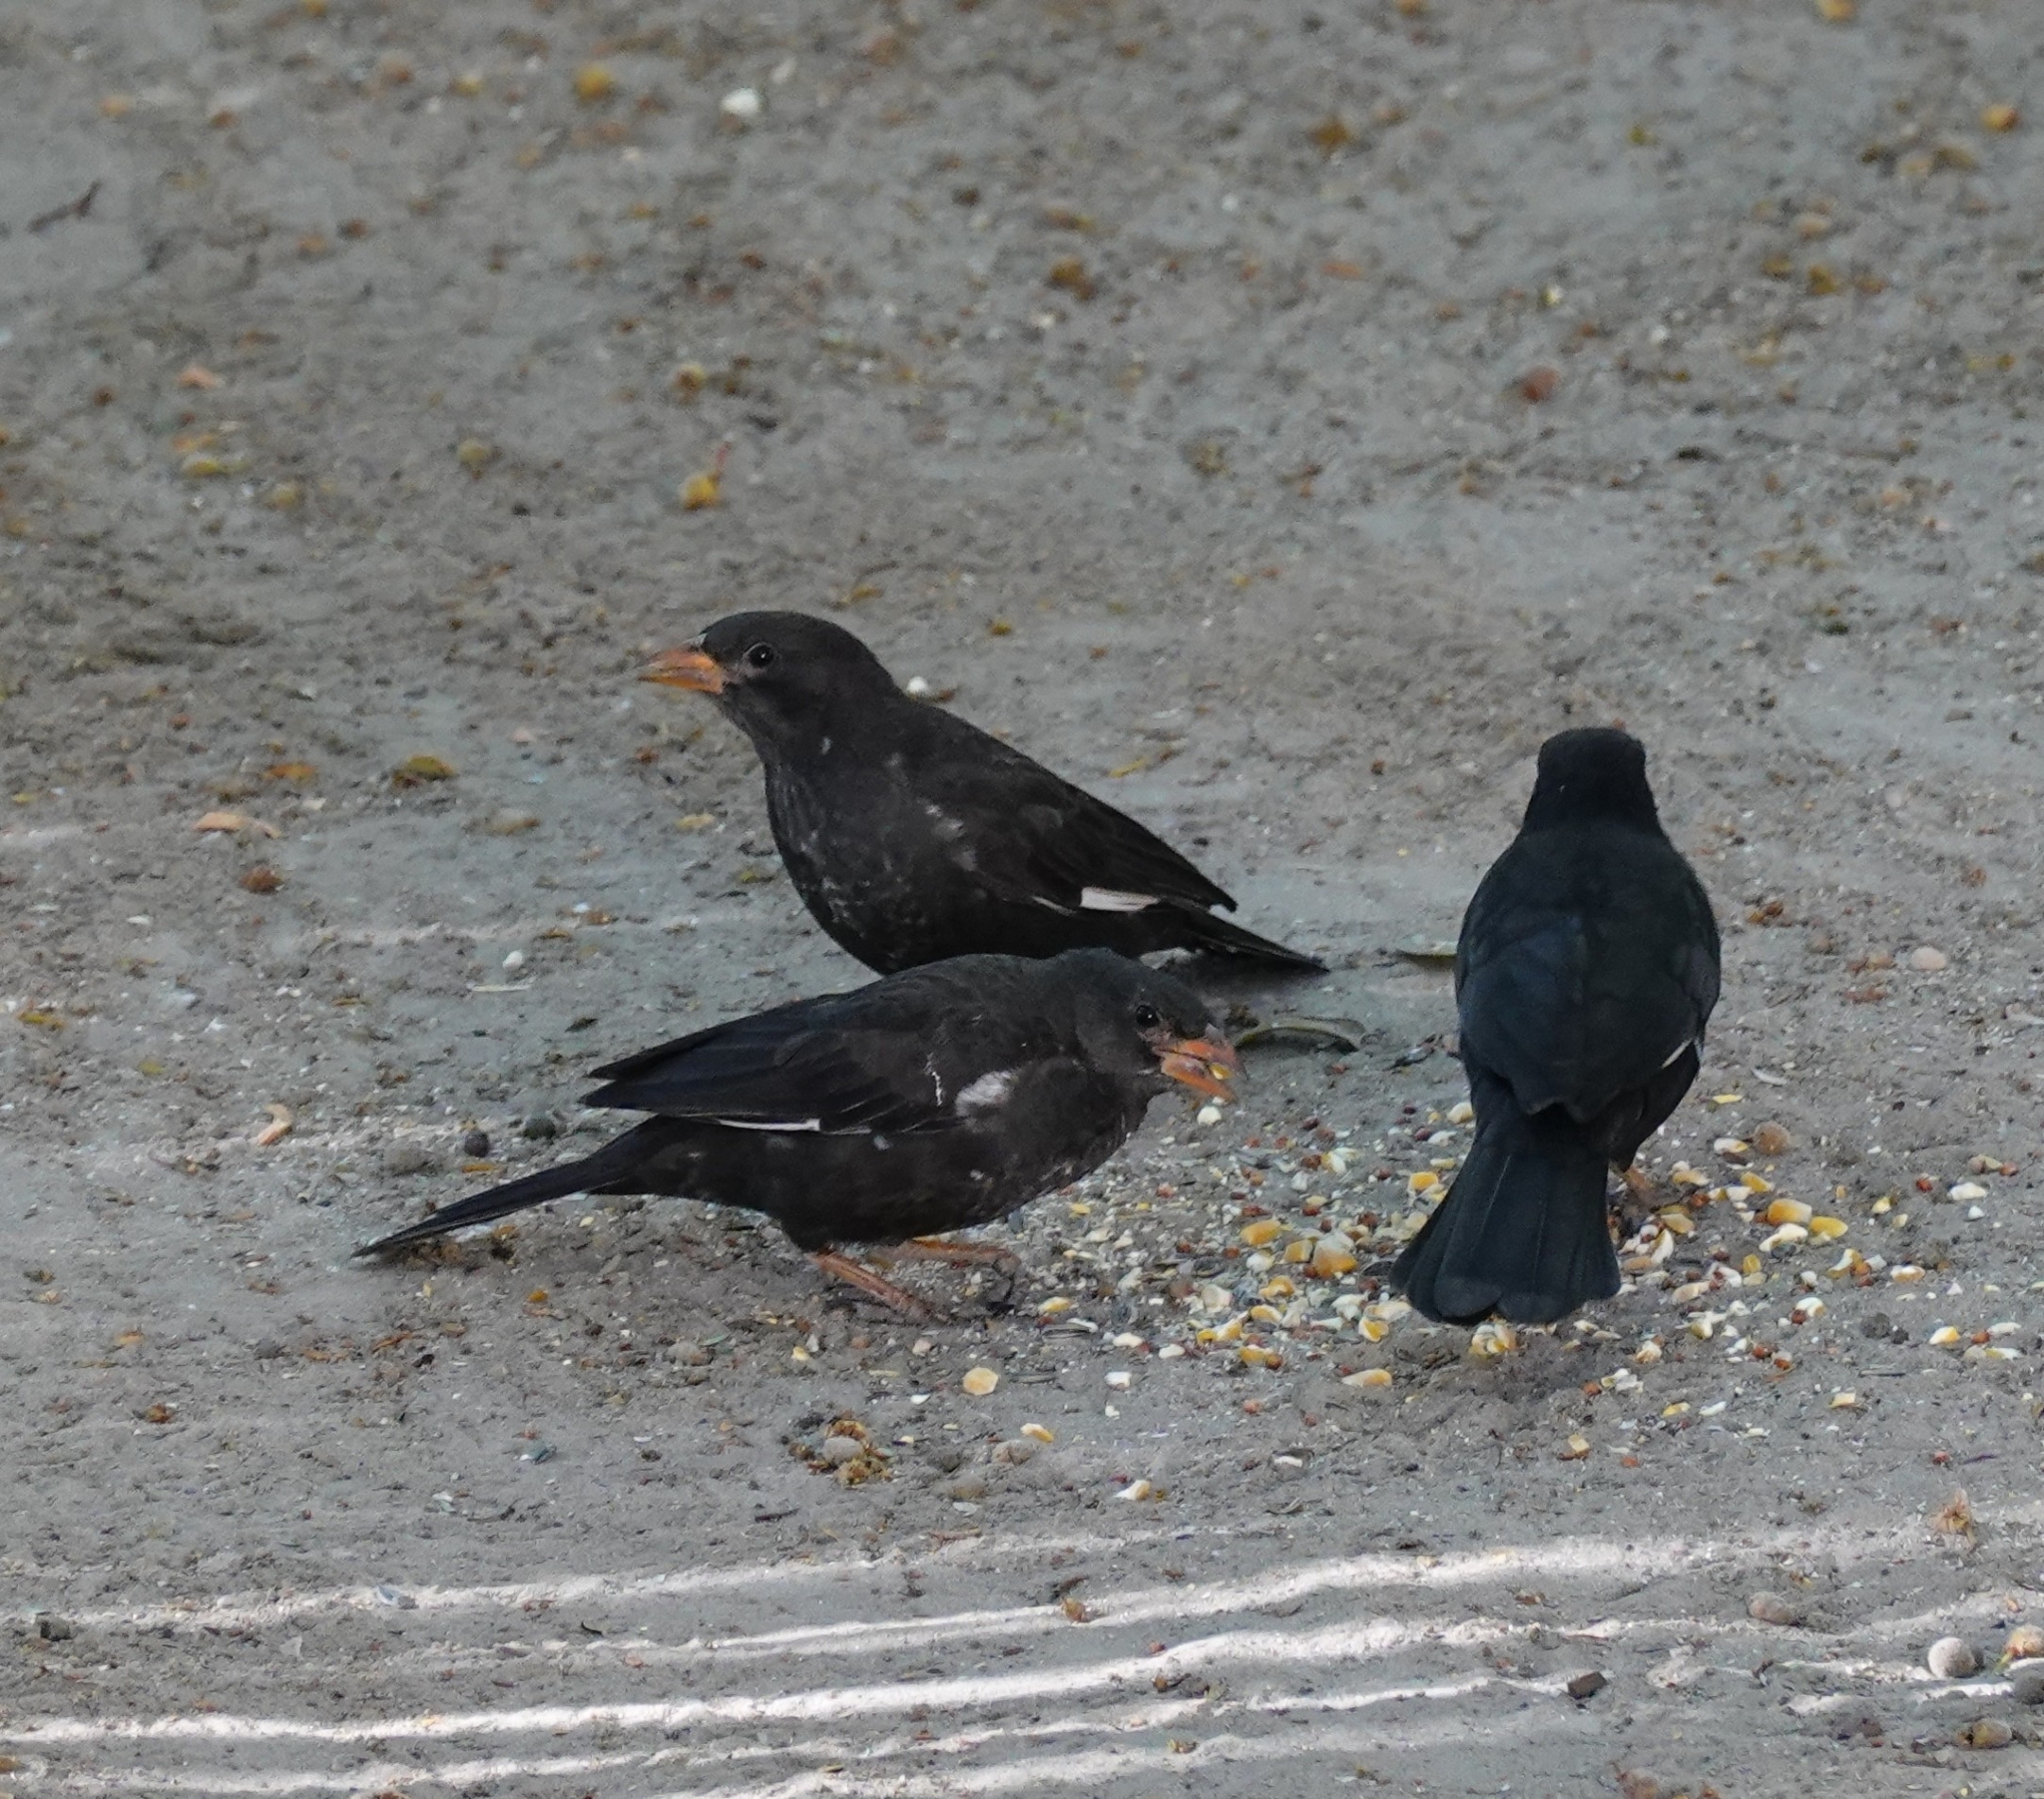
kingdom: Animalia
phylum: Chordata
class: Aves
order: Passeriformes
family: Ploceidae
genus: Bubalornis
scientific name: Bubalornis niger
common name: Red-billed buffalo weaver
